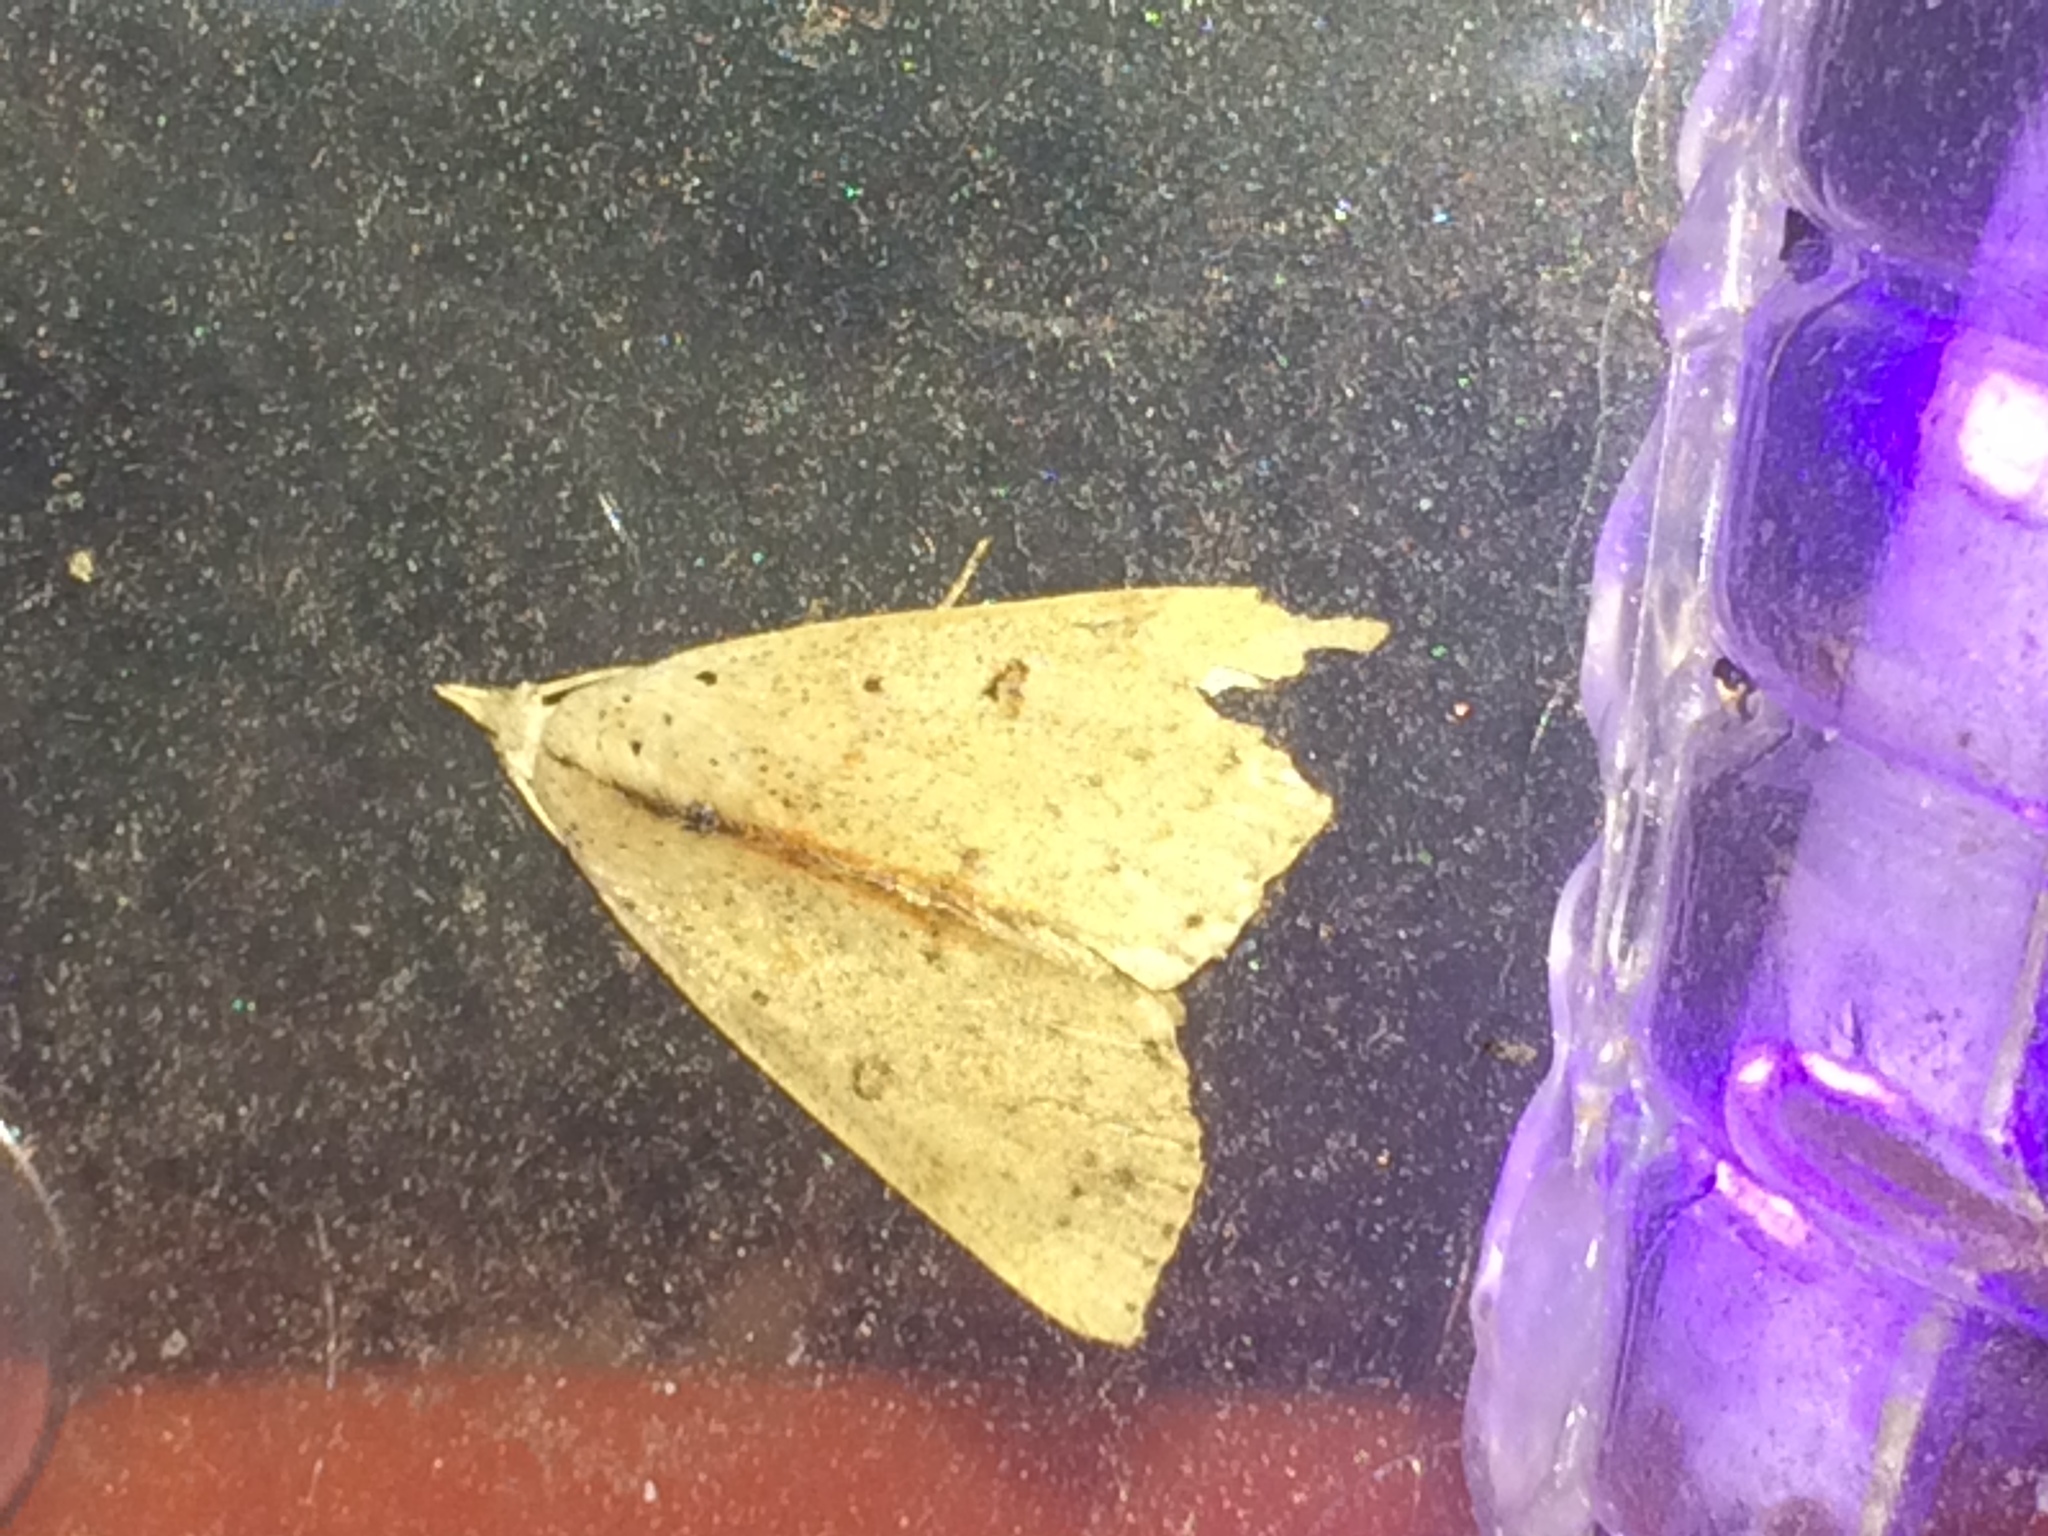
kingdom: Animalia
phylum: Arthropoda
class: Insecta
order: Lepidoptera
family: Erebidae
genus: Scolecocampa
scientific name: Scolecocampa liburna
